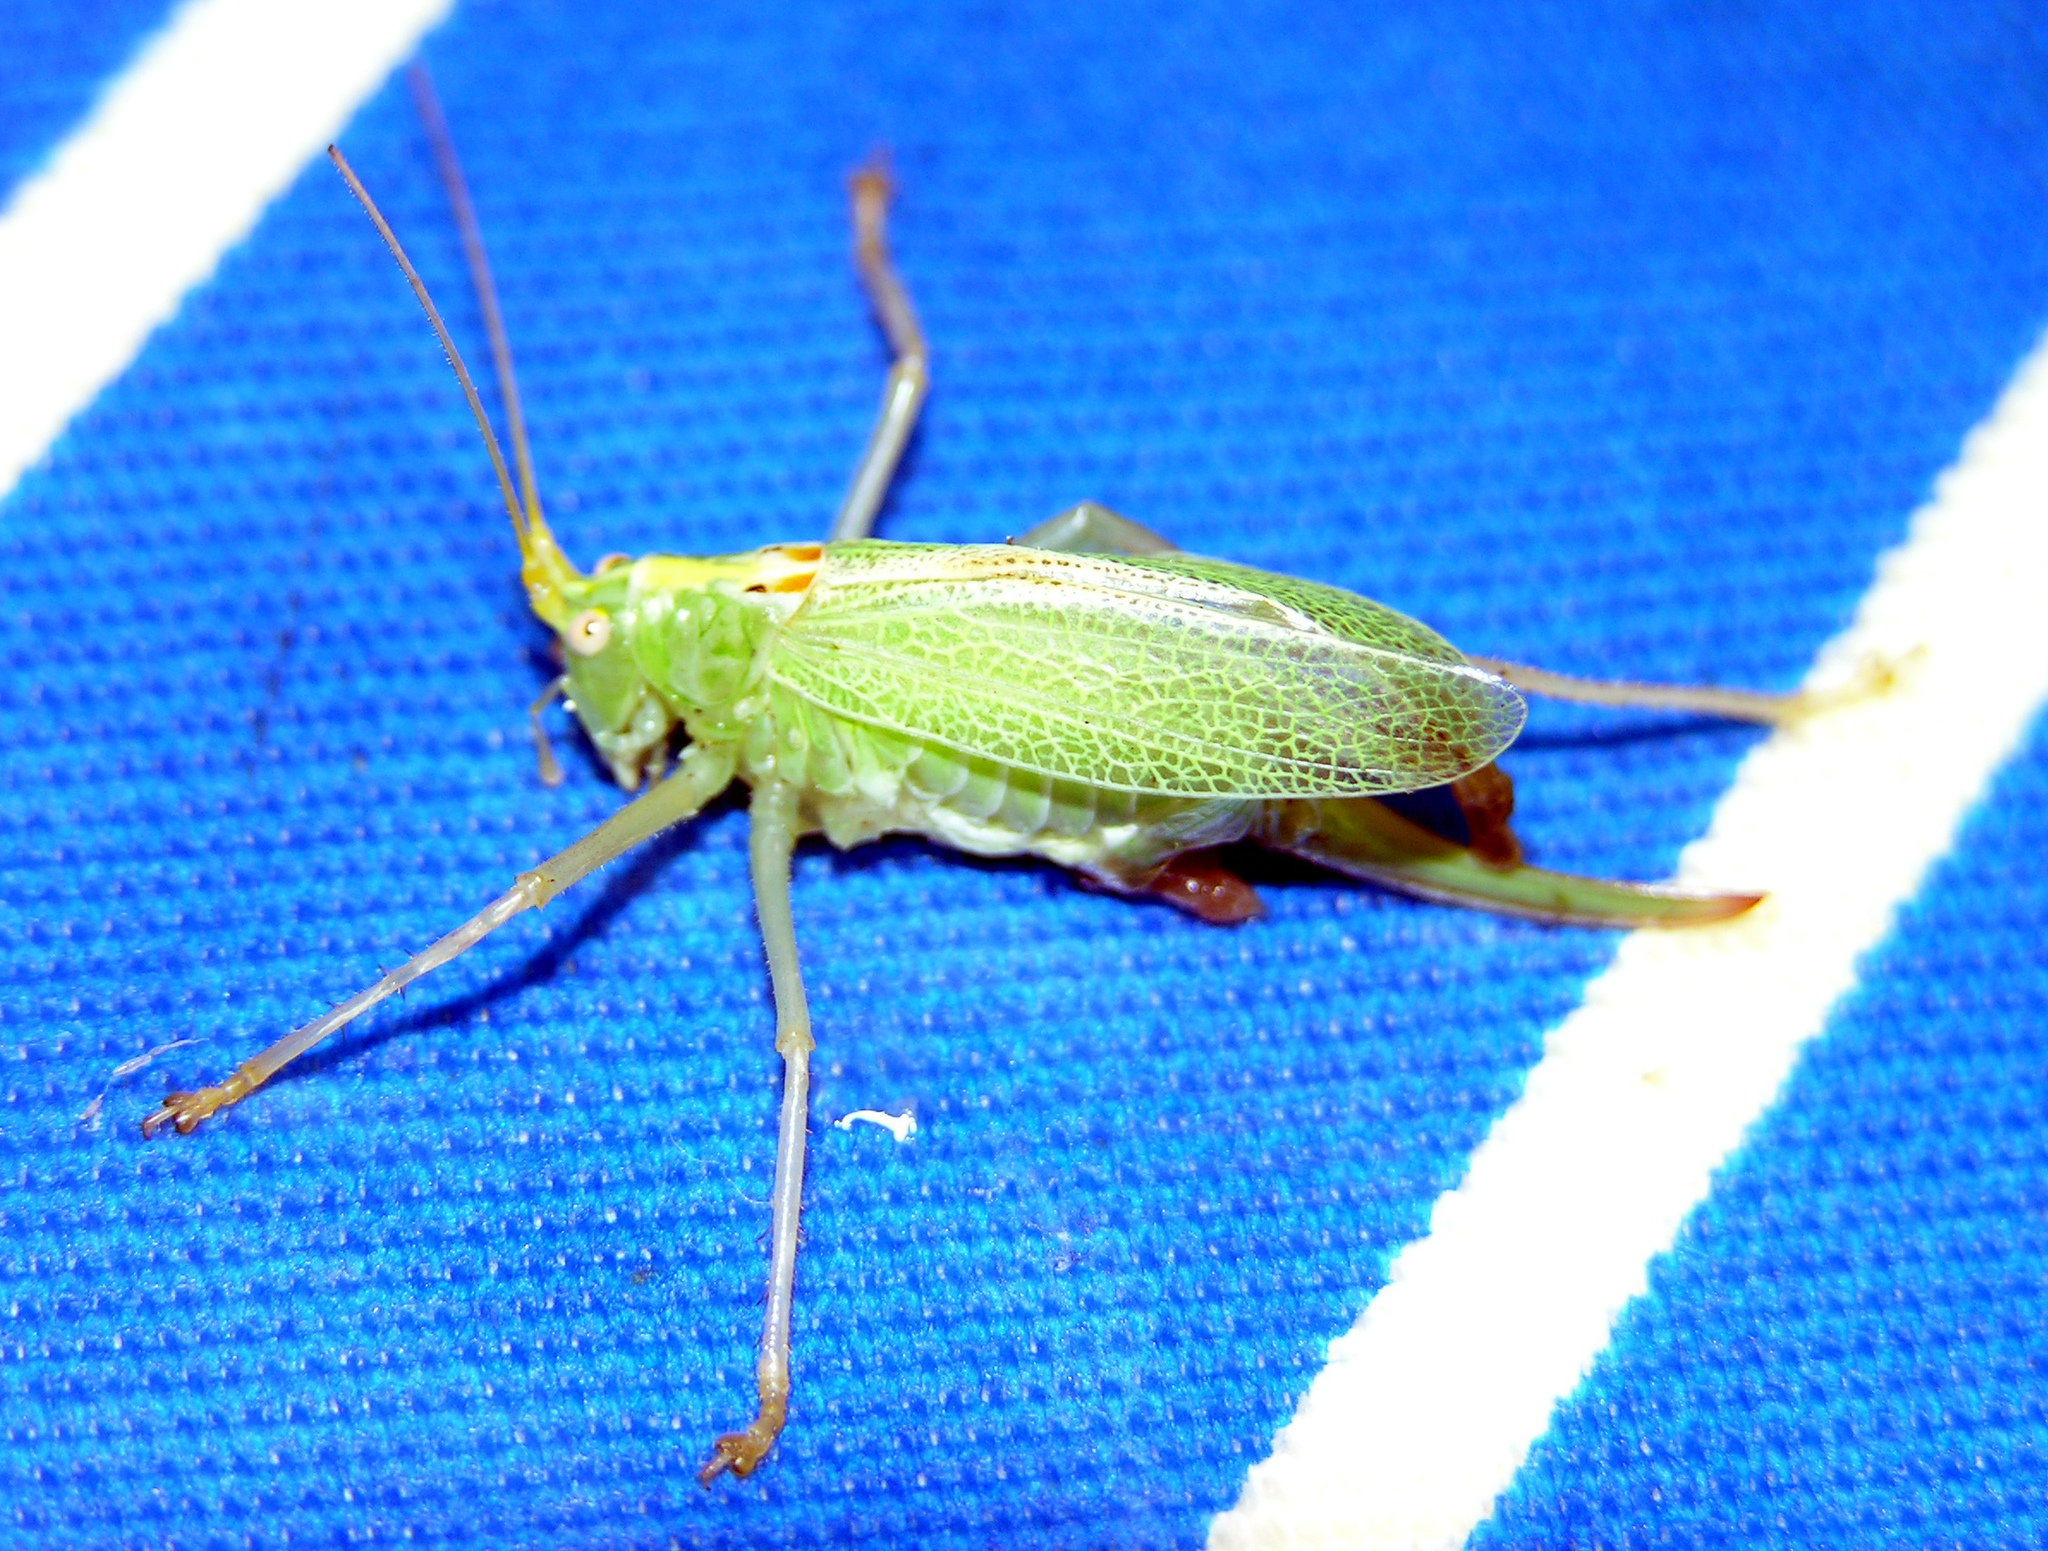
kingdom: Animalia
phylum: Arthropoda
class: Insecta
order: Orthoptera
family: Tettigoniidae
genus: Meconema
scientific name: Meconema thalassinum
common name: Oak bush-cricket
